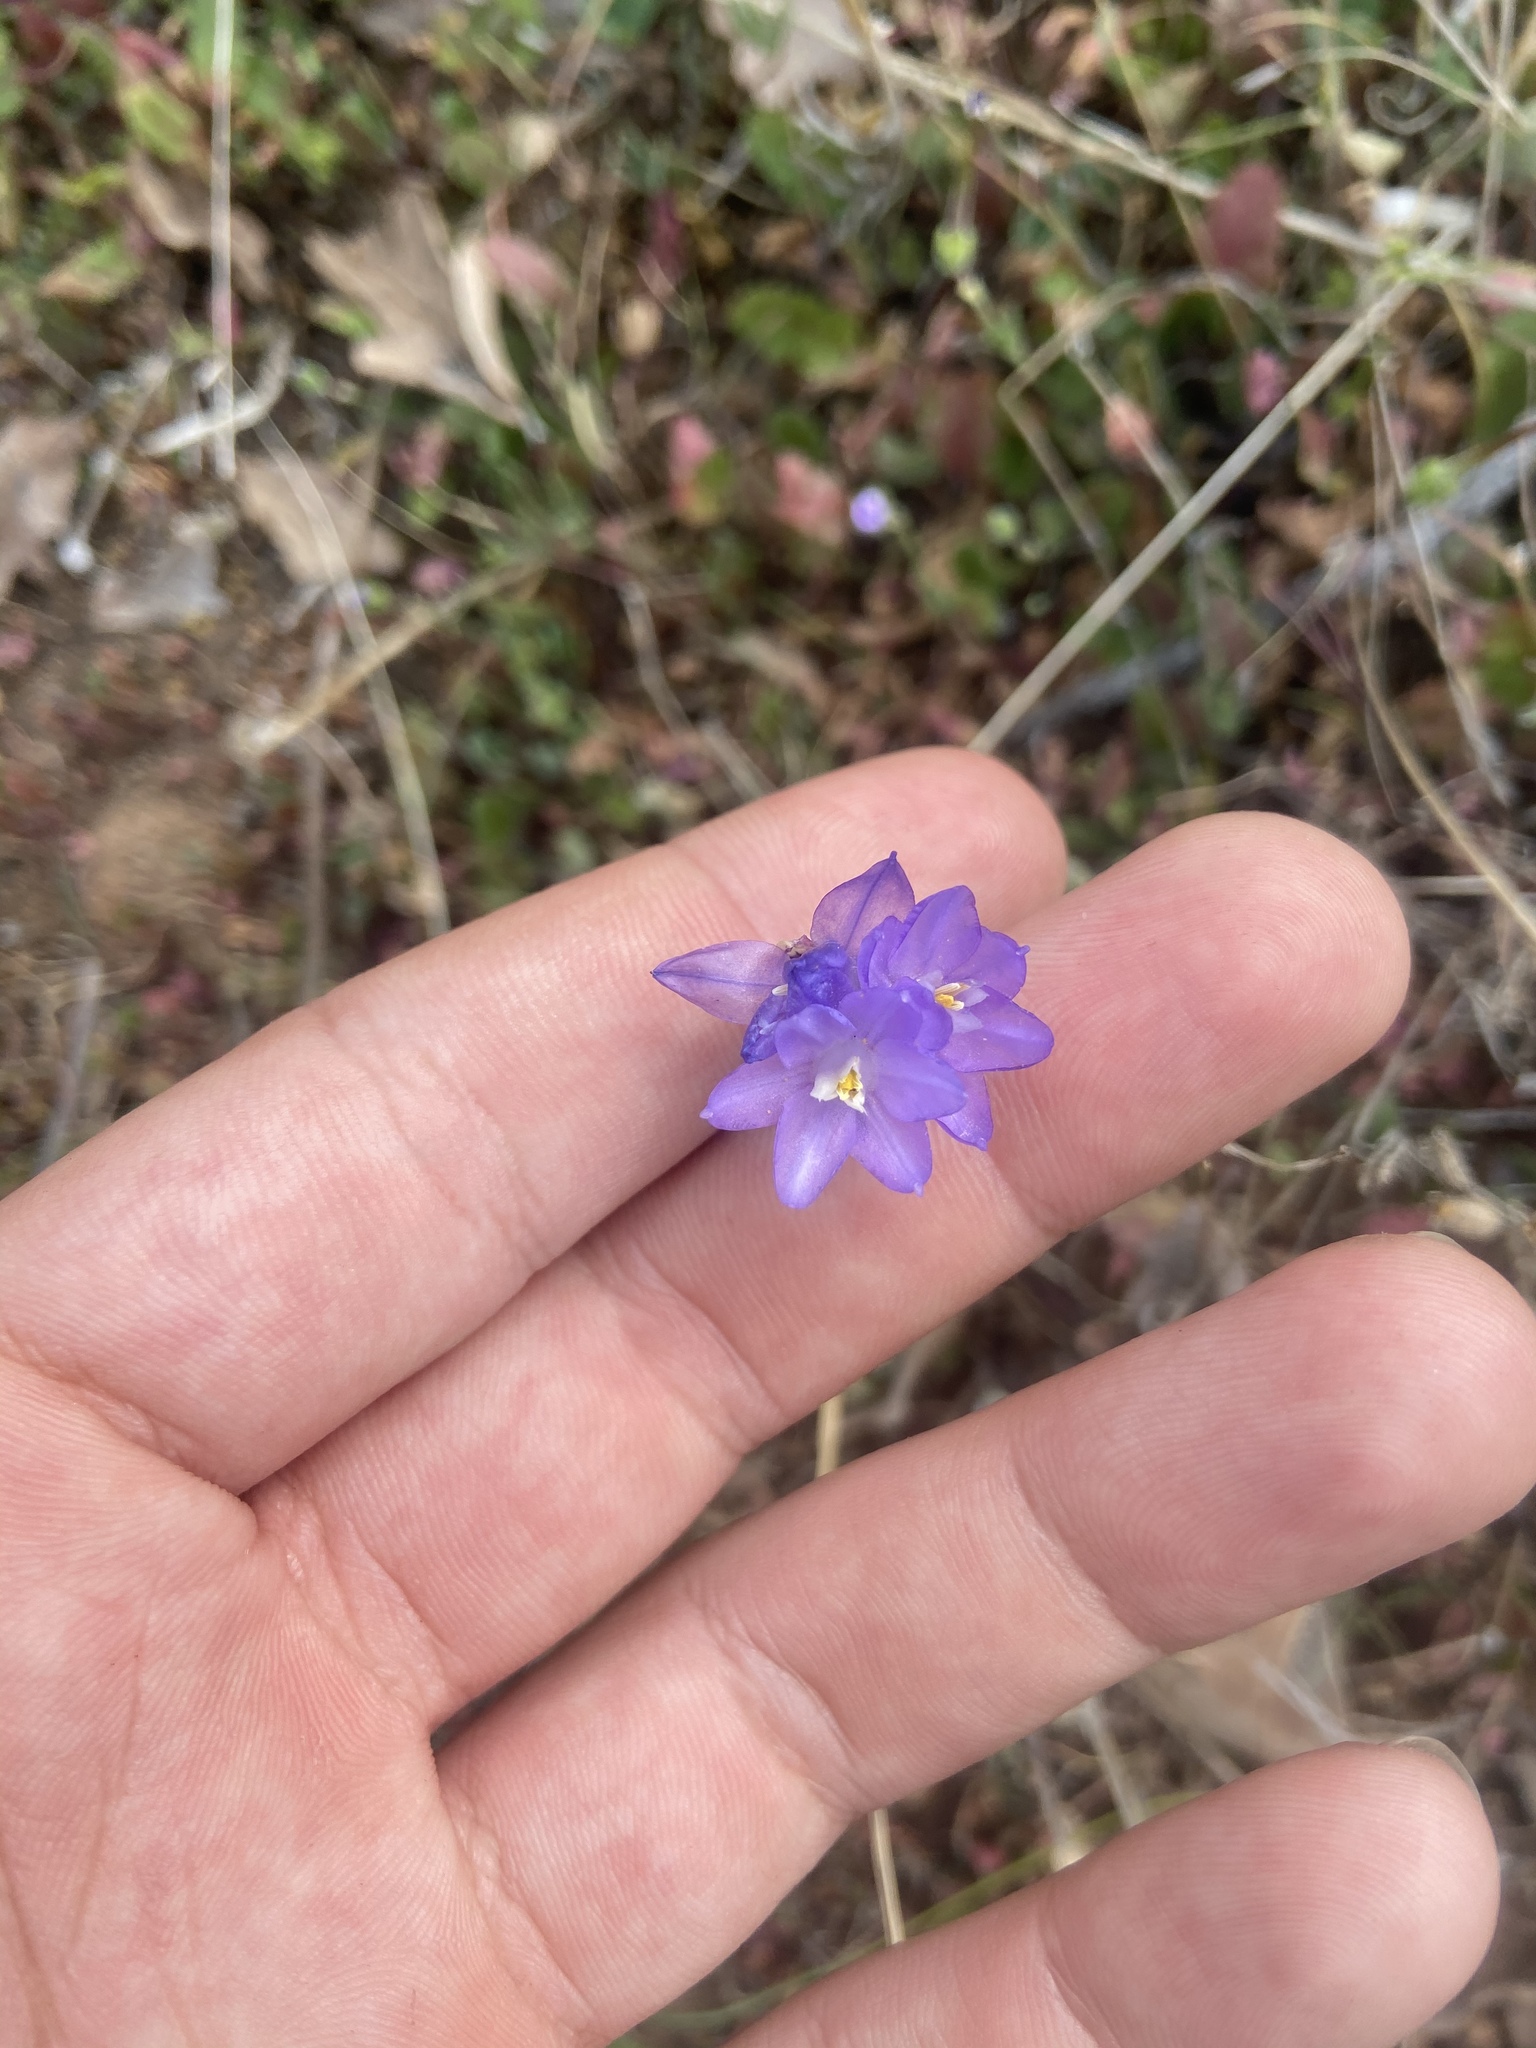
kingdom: Plantae
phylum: Tracheophyta
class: Liliopsida
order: Asparagales
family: Asparagaceae
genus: Dipterostemon
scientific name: Dipterostemon capitatus
